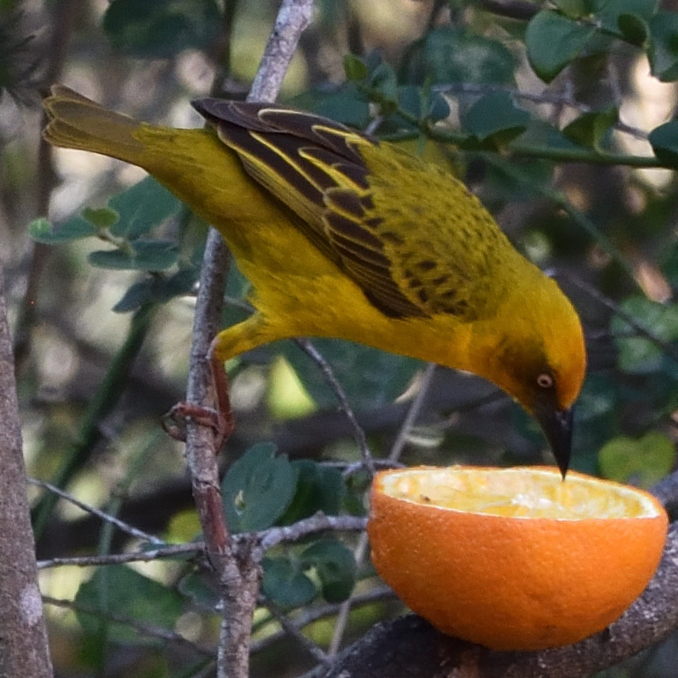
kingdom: Animalia
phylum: Chordata
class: Aves
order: Passeriformes
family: Ploceidae
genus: Ploceus
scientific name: Ploceus capensis
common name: Cape weaver
